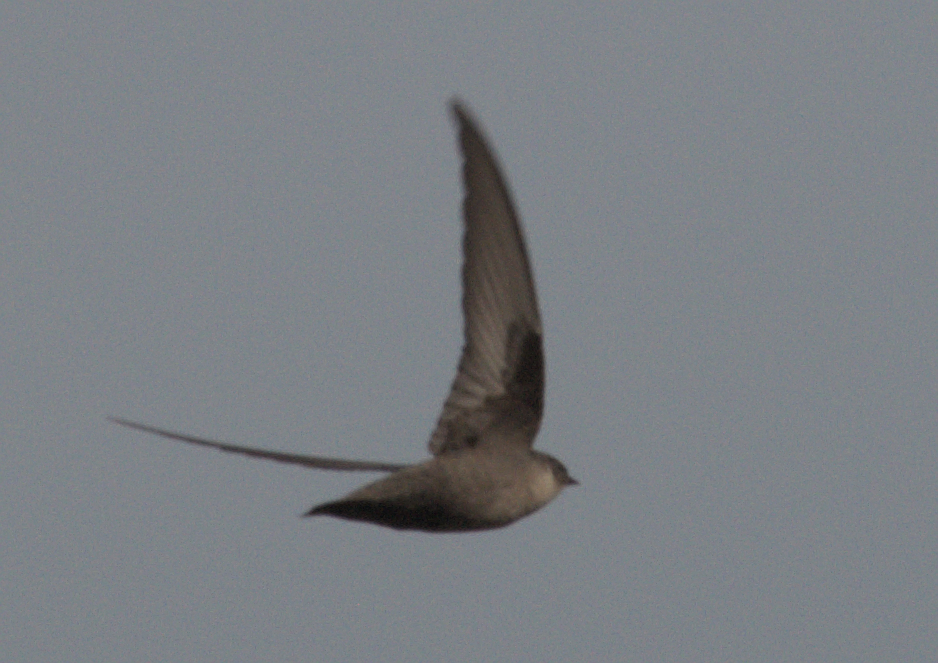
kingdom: Animalia
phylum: Chordata
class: Aves
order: Passeriformes
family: Hirundinidae
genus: Ptyonoprogne
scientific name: Ptyonoprogne rupestris
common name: Eurasian crag martin
